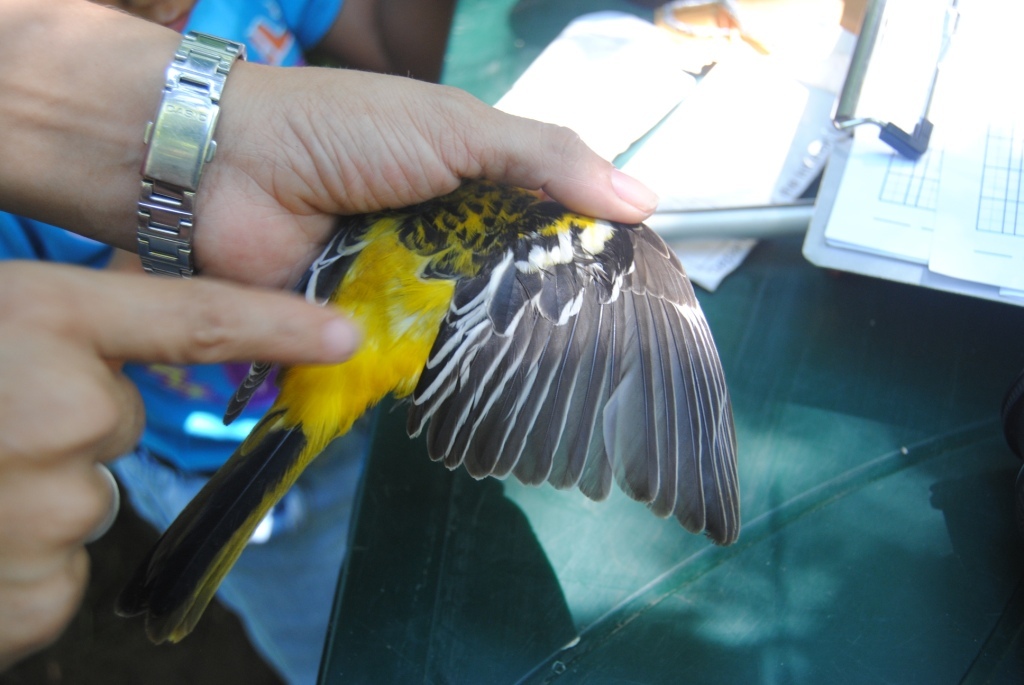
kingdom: Animalia
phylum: Chordata
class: Aves
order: Passeriformes
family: Icteridae
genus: Icterus
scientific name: Icterus pustulatus
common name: Streak-backed oriole
